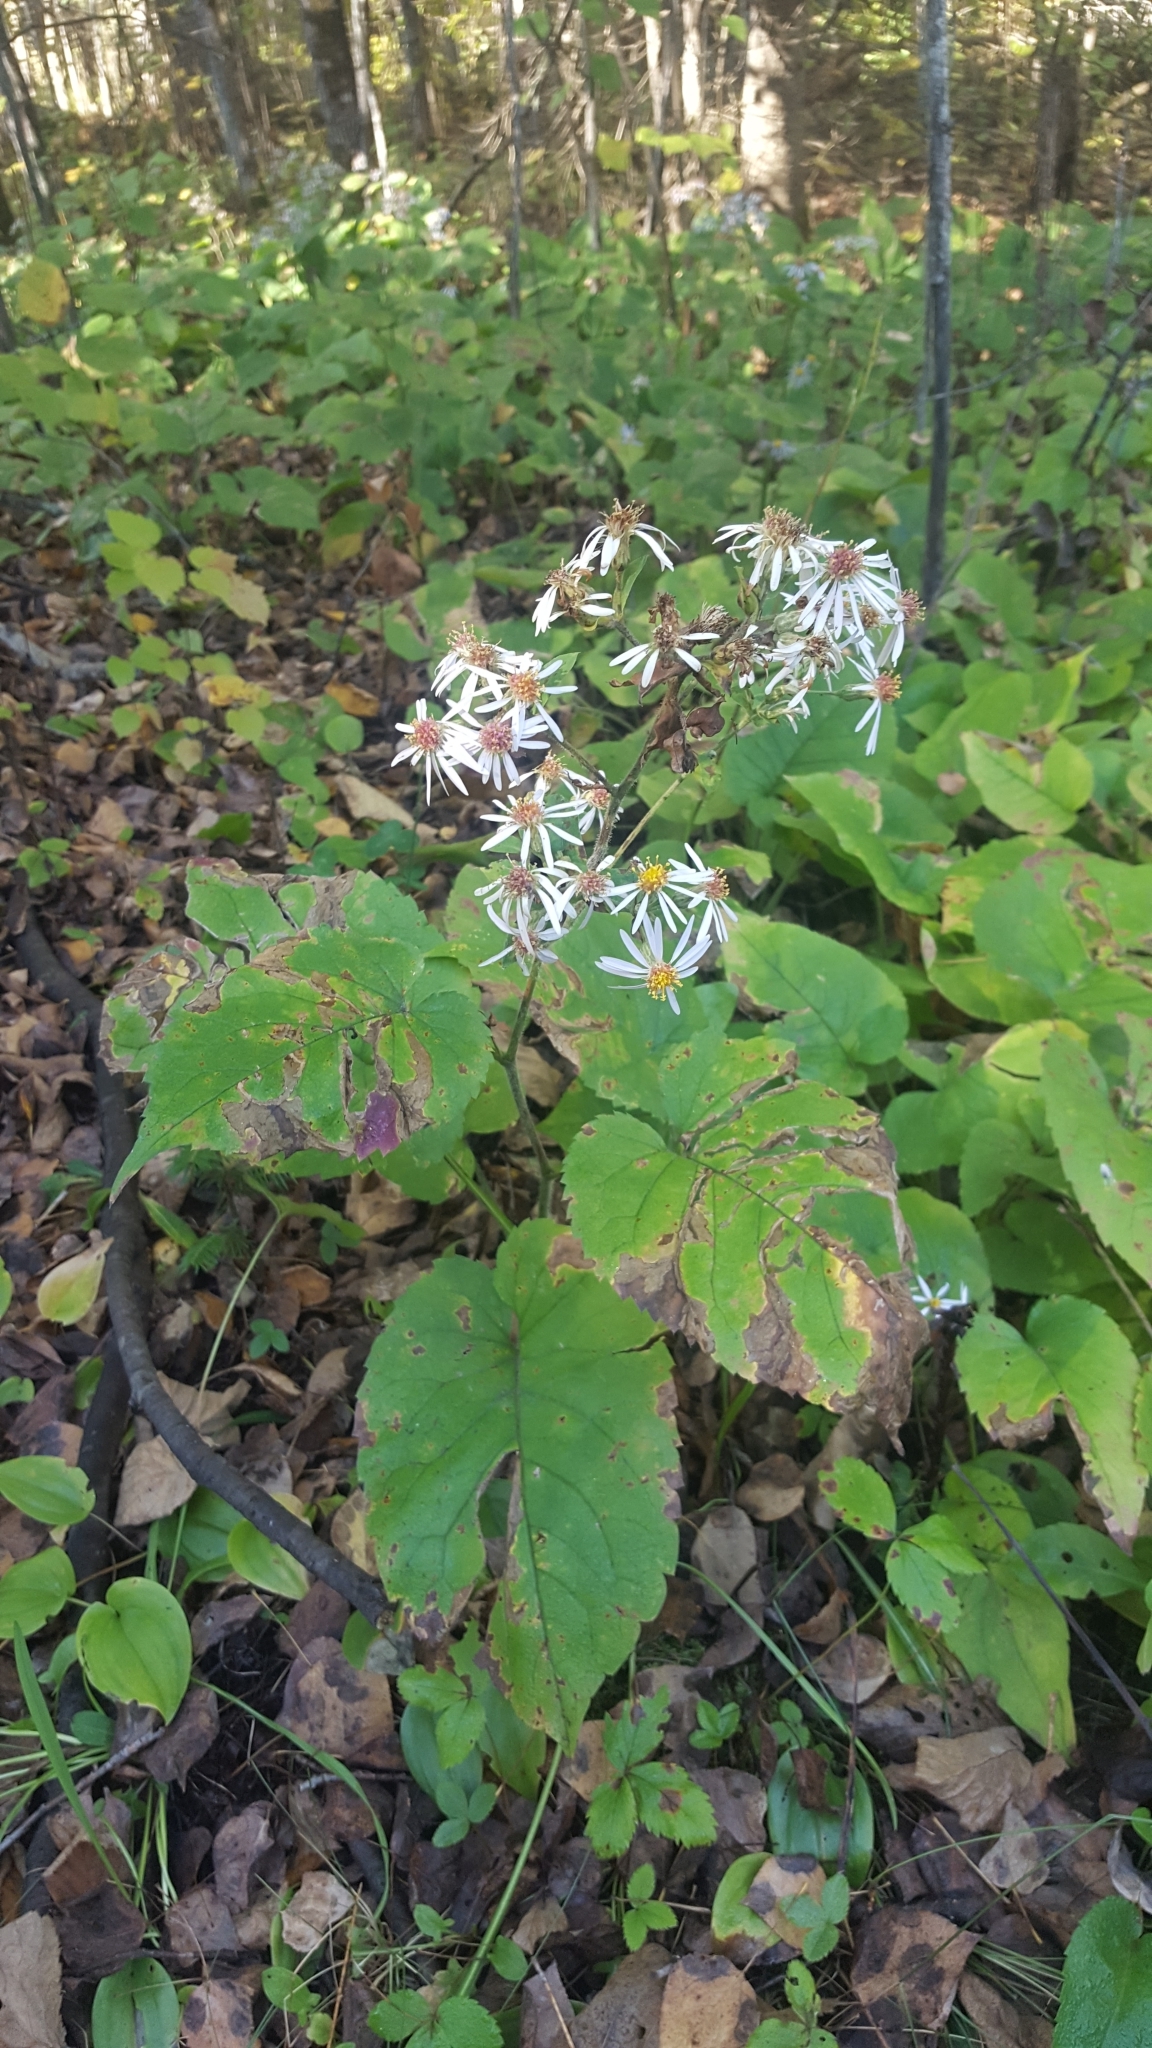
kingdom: Plantae
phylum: Tracheophyta
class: Magnoliopsida
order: Asterales
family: Asteraceae
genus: Eurybia
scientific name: Eurybia macrophylla
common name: Big-leaved aster
